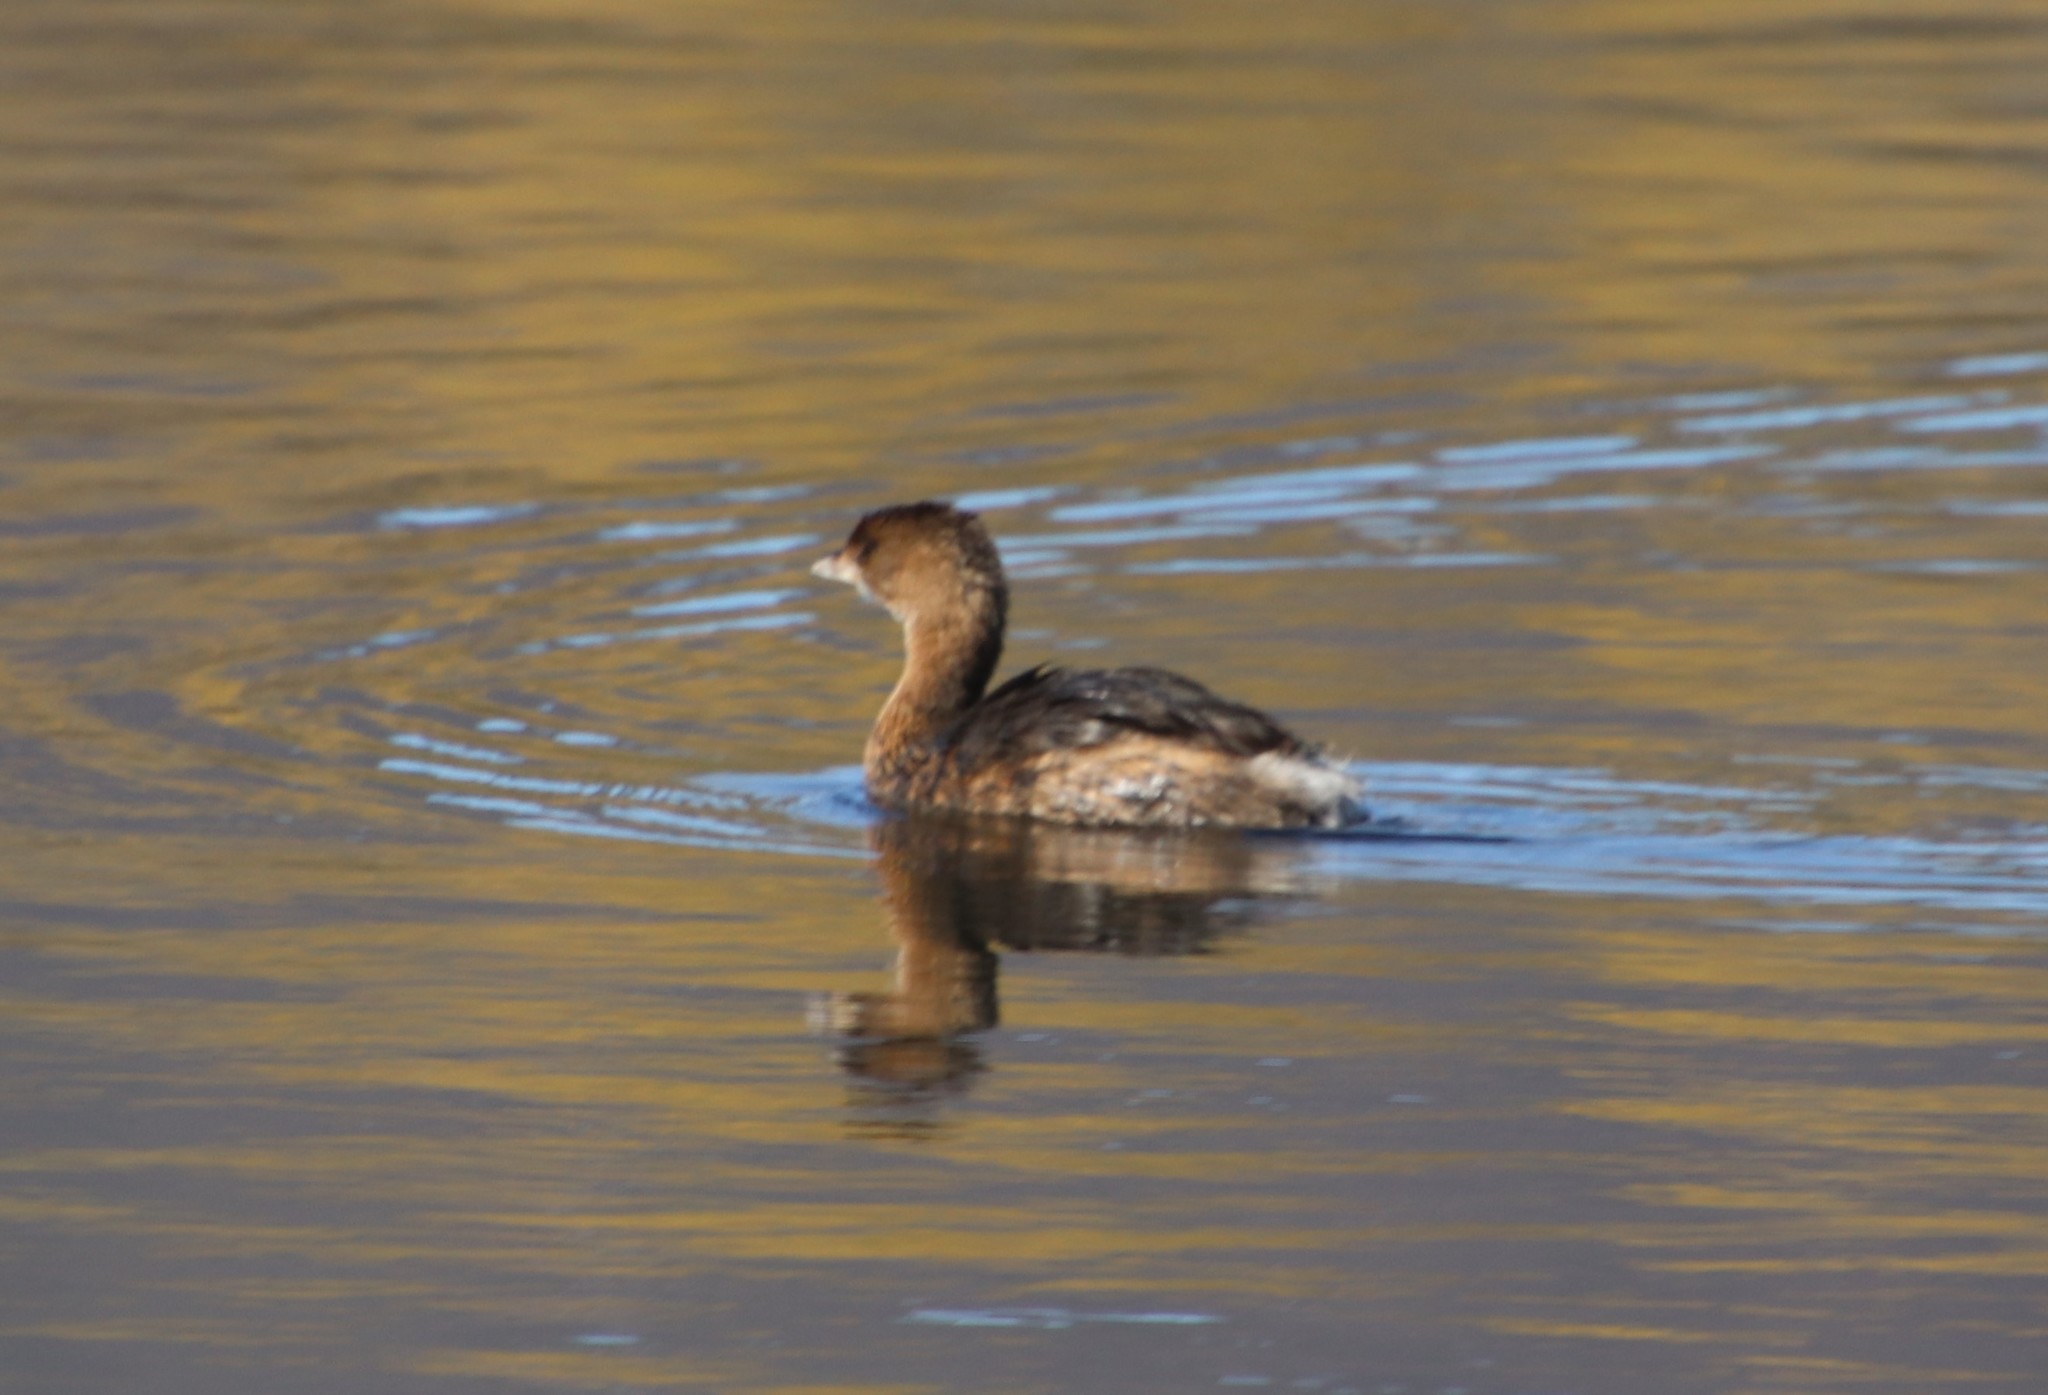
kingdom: Animalia
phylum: Chordata
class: Aves
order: Podicipediformes
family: Podicipedidae
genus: Podilymbus
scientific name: Podilymbus podiceps
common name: Pied-billed grebe
